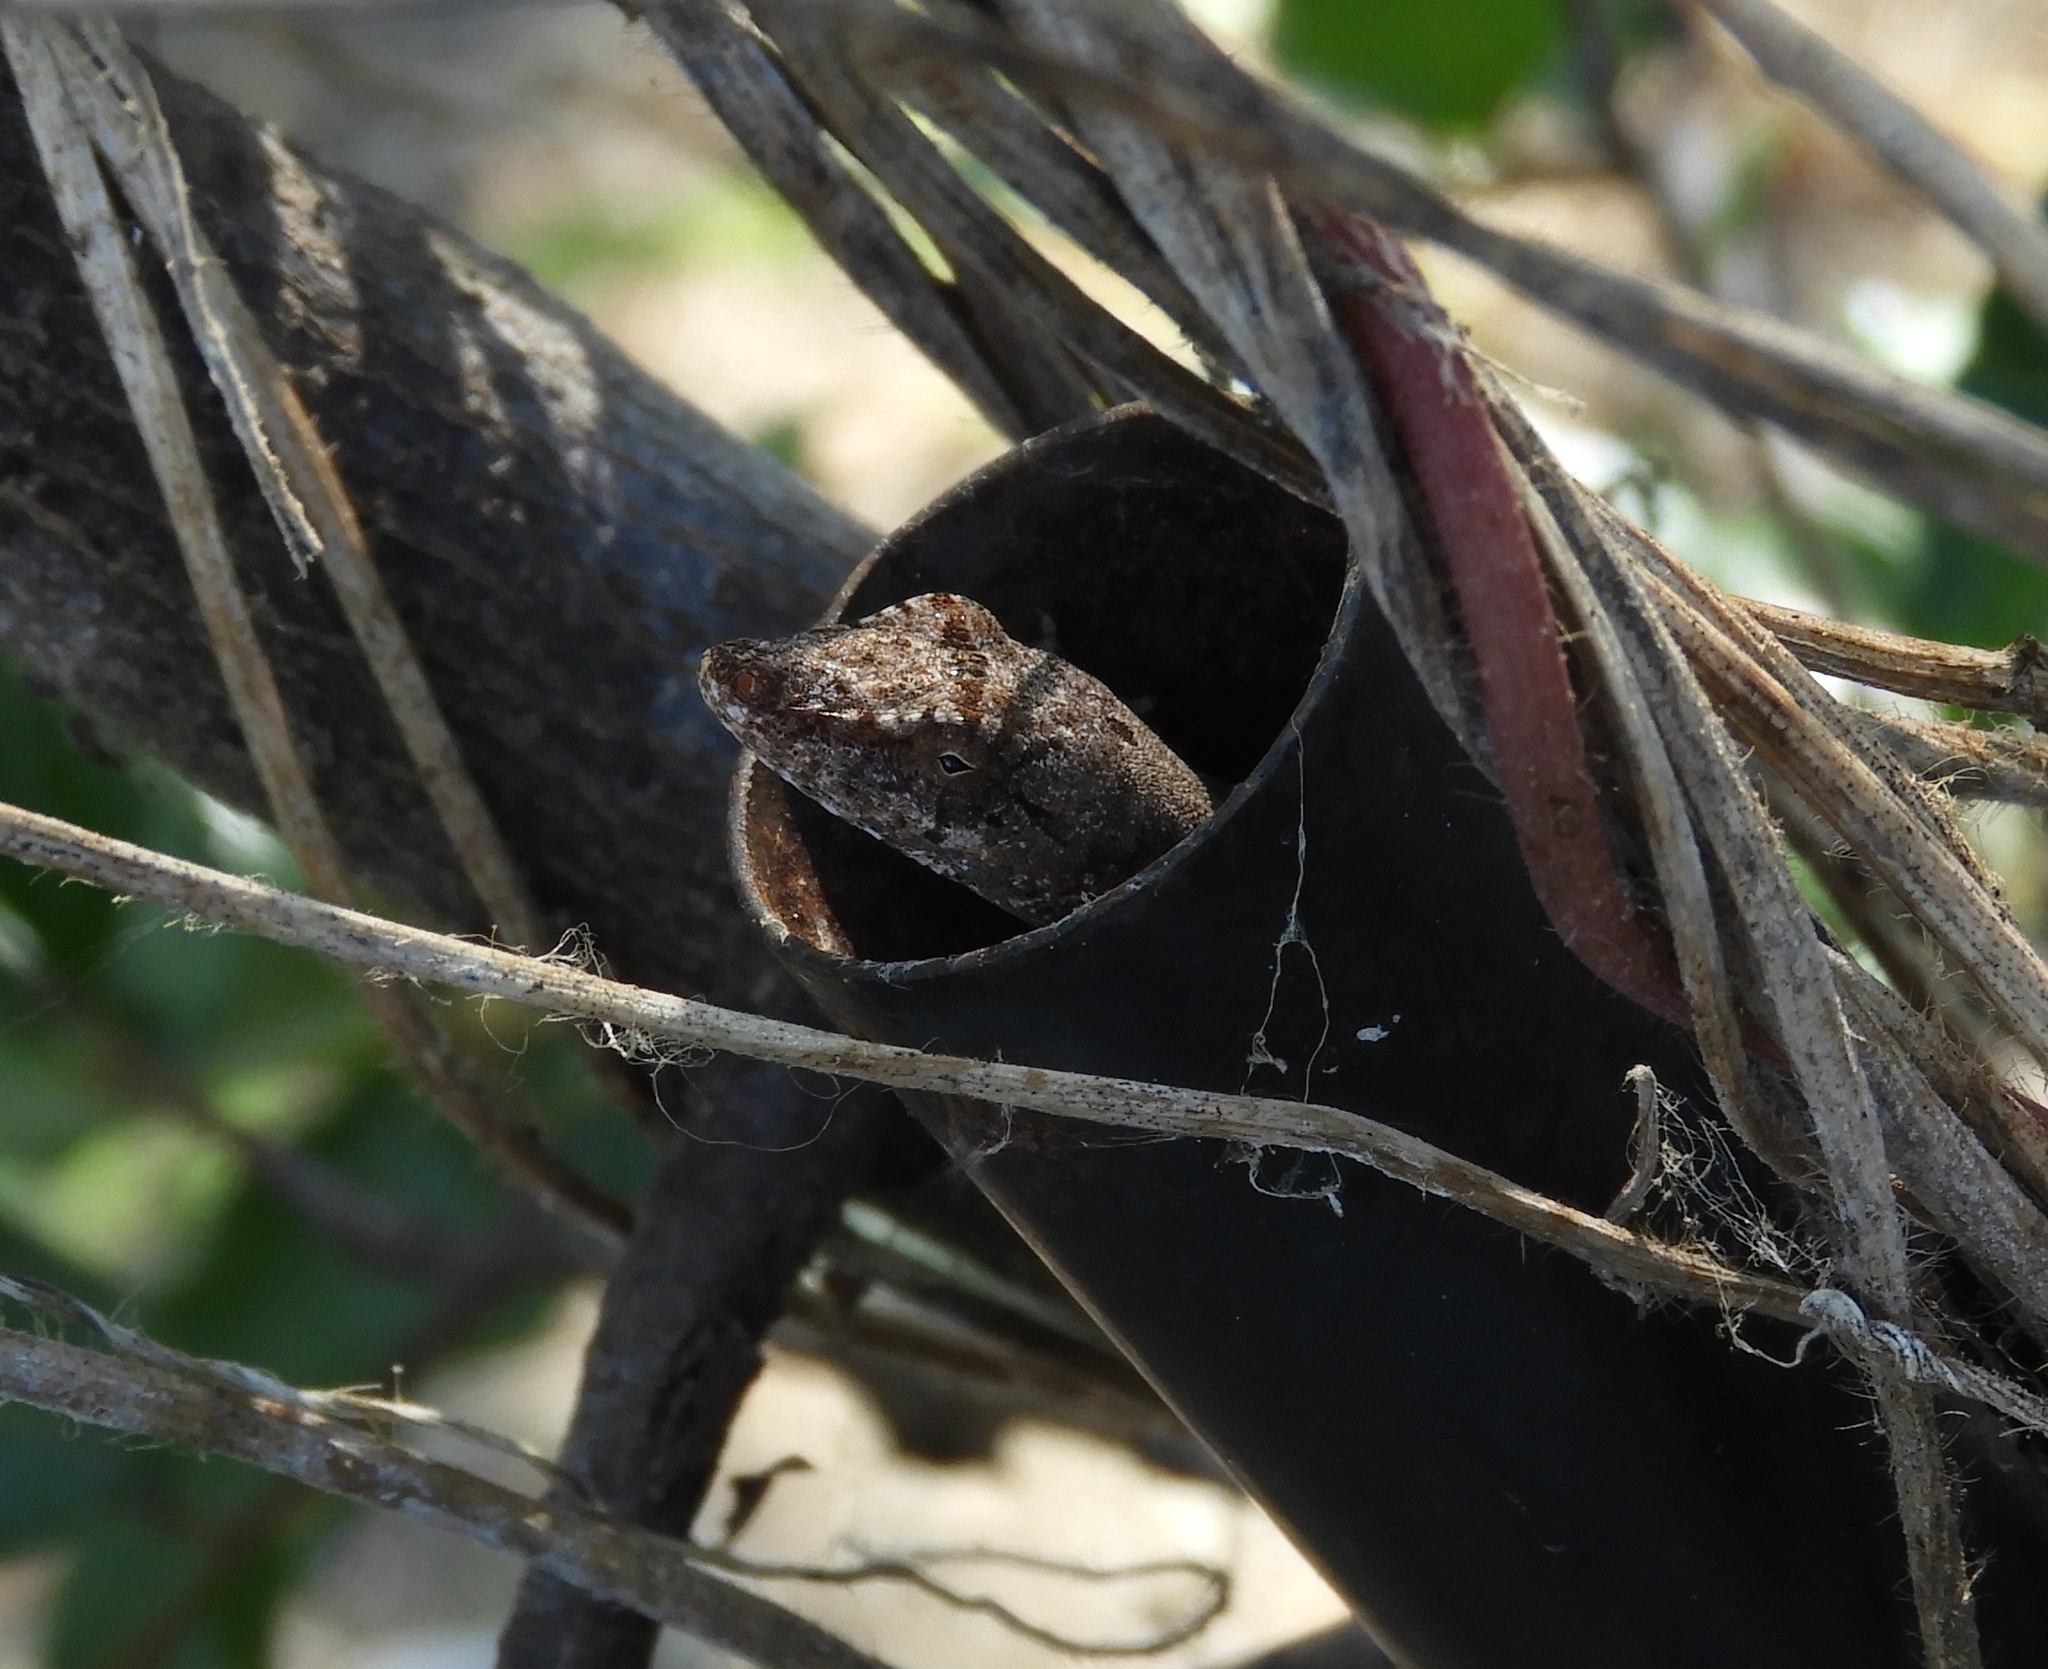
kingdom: Animalia
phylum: Chordata
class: Squamata
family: Dactyloidae
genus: Anolis
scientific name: Anolis nebulosus
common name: Clouded anole
